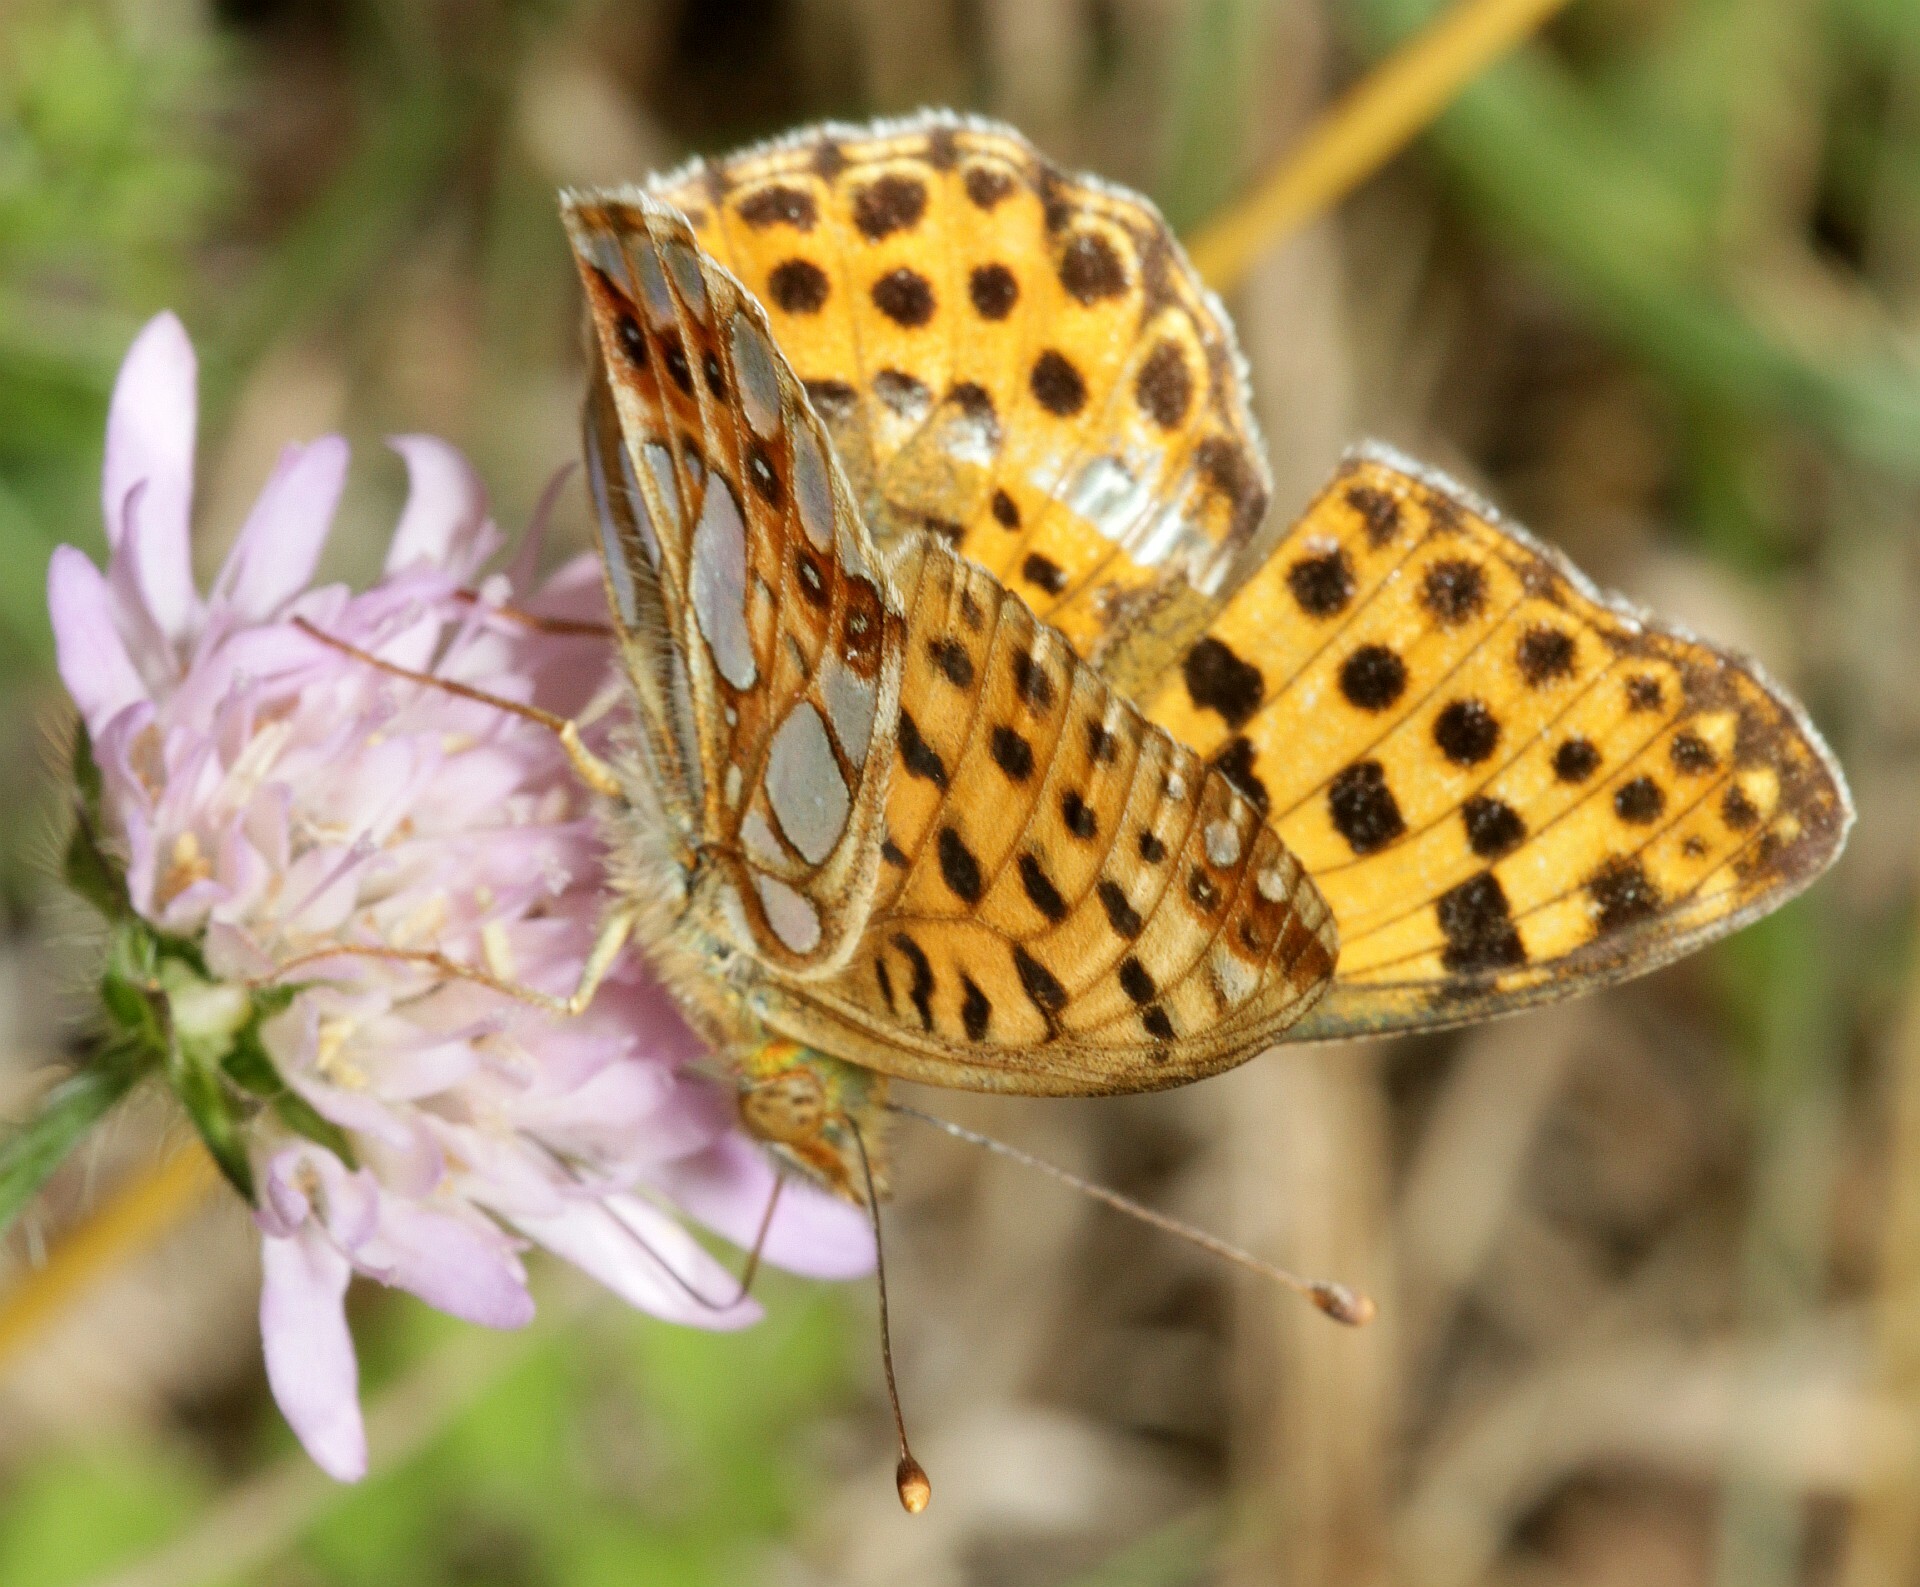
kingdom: Animalia
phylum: Arthropoda
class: Insecta
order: Lepidoptera
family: Nymphalidae
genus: Issoria
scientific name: Issoria lathonia
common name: Queen of spain fritillary
